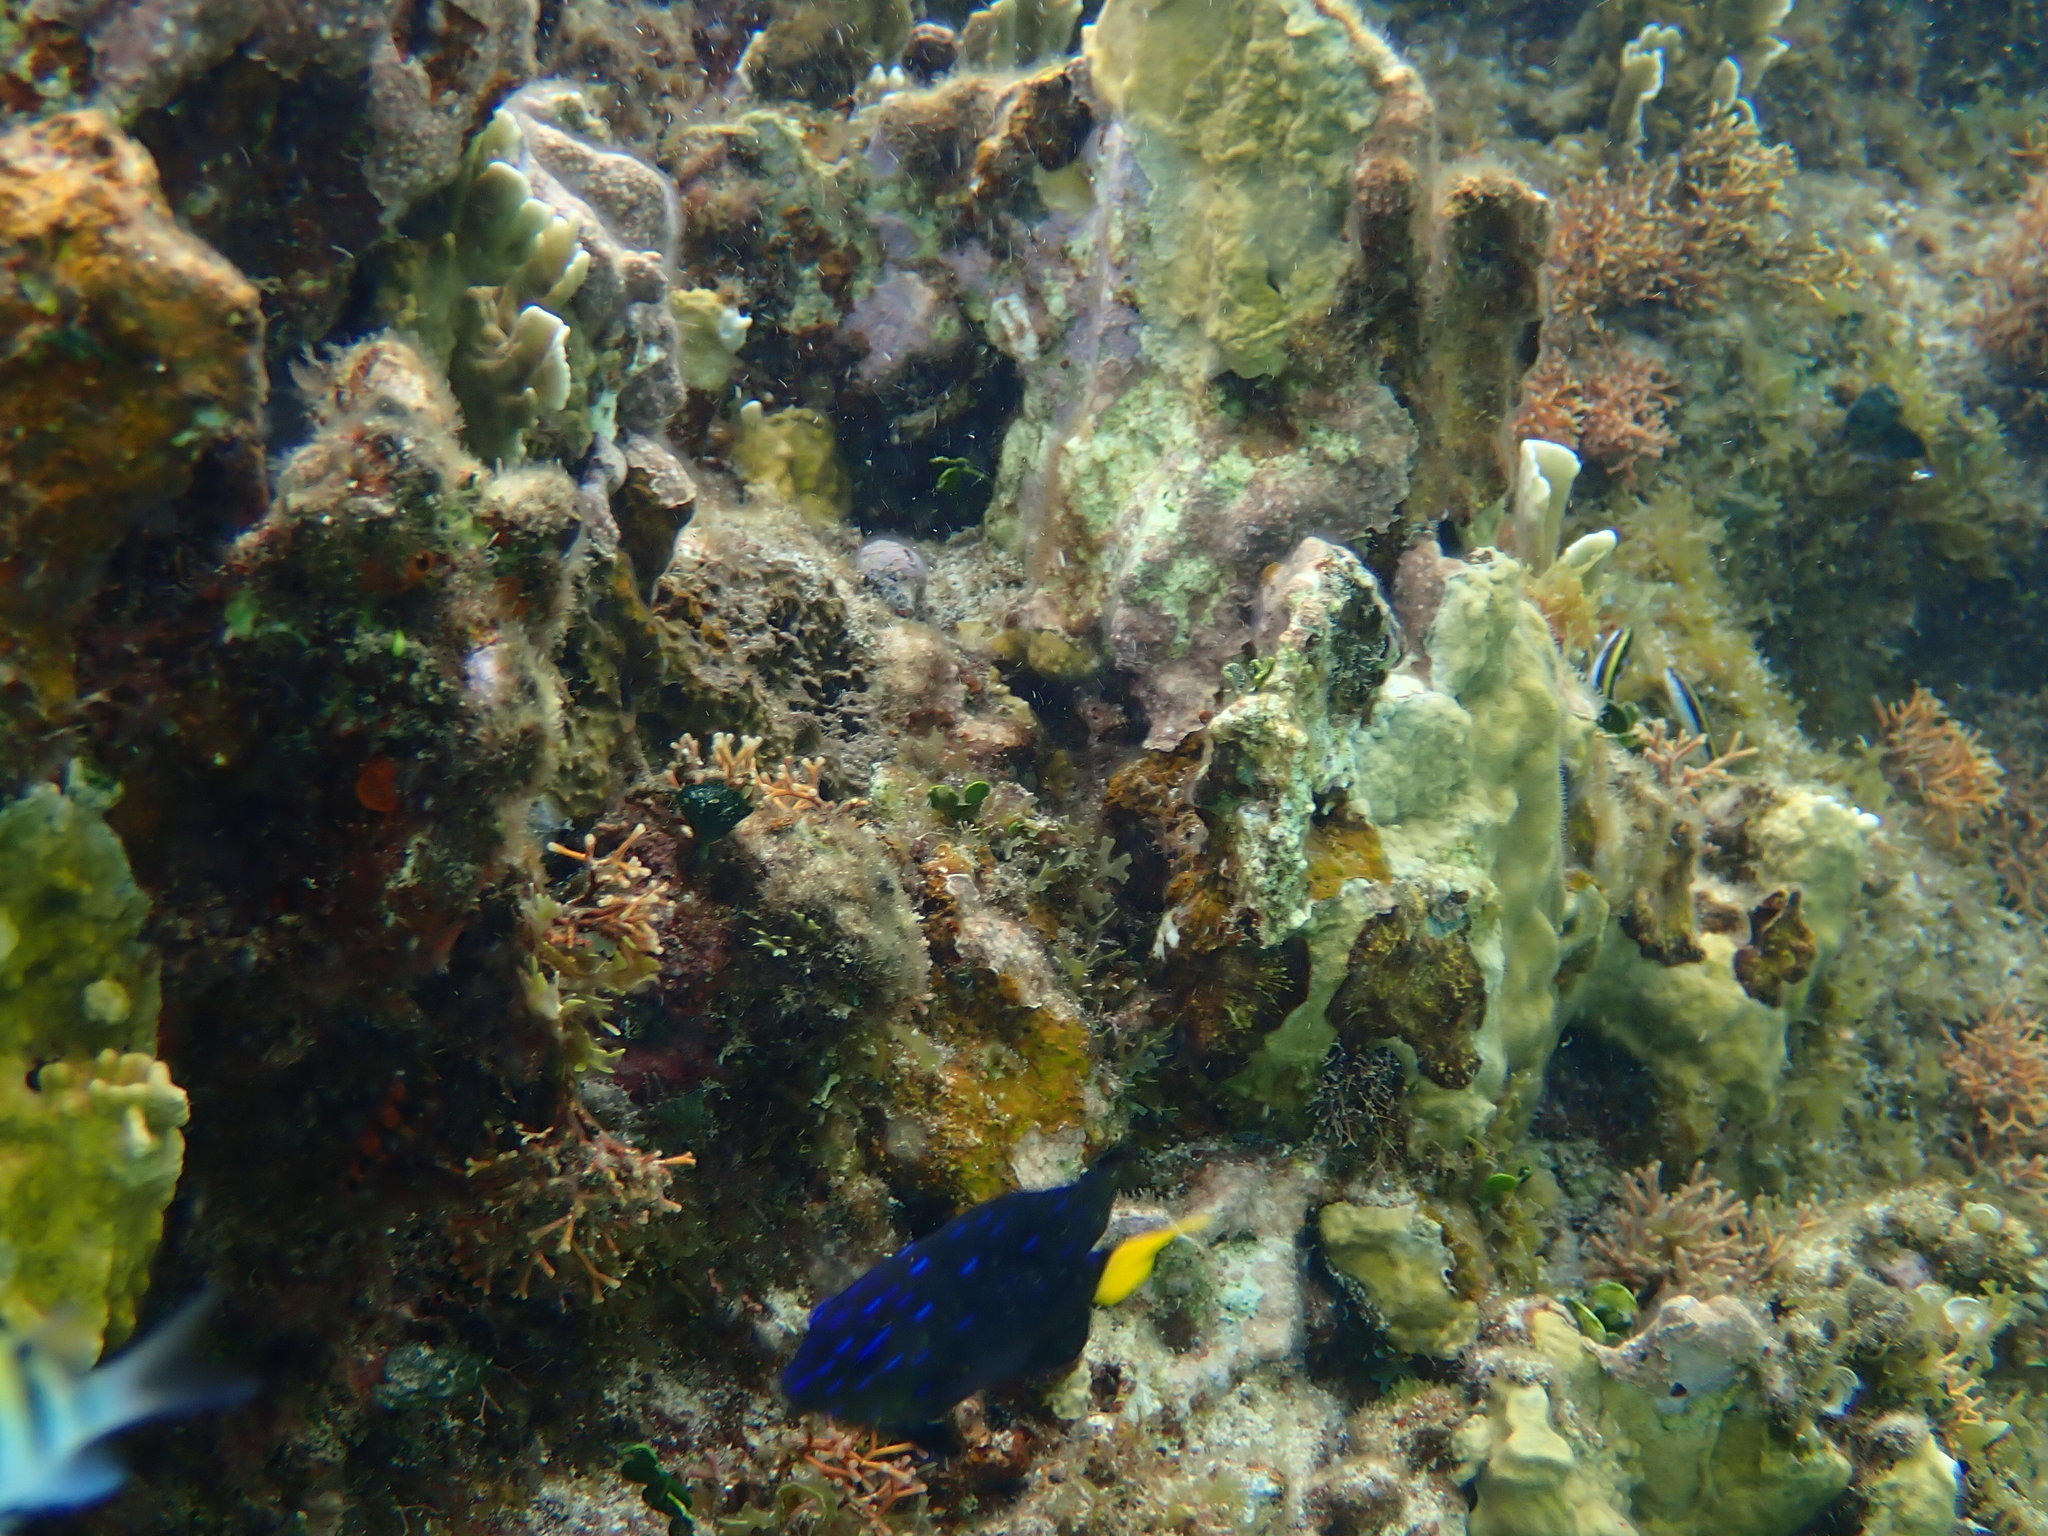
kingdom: Animalia
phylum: Chordata
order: Perciformes
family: Pomacentridae
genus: Microspathodon
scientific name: Microspathodon chrysurus
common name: Yellowtail damselfish
